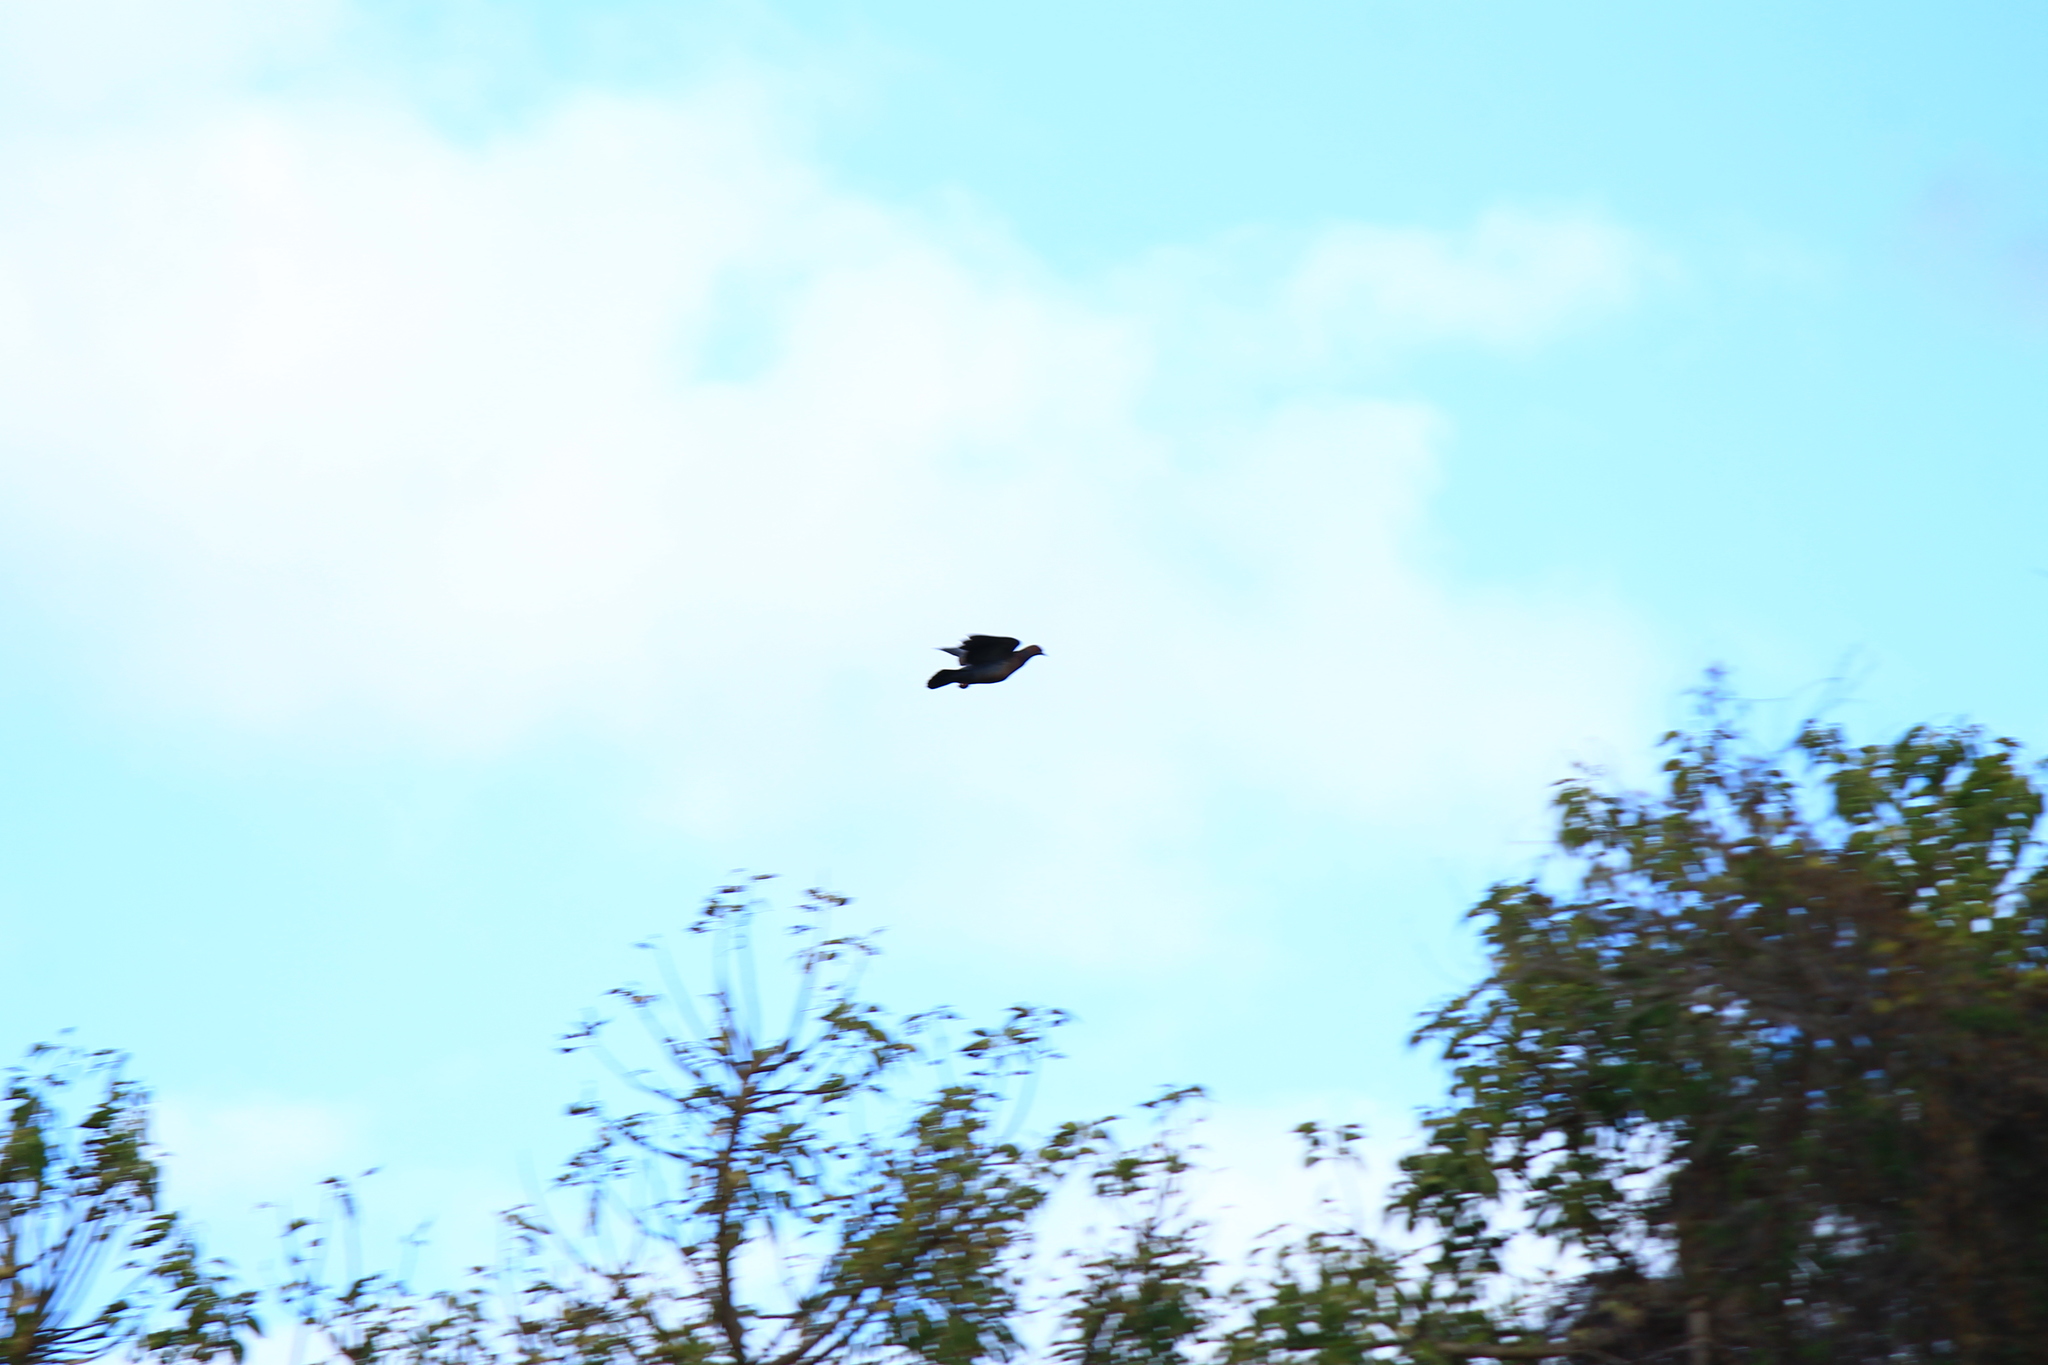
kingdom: Animalia
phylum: Chordata
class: Aves
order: Columbiformes
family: Columbidae
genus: Patagioenas
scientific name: Patagioenas picazuro
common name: Picazuro pigeon
